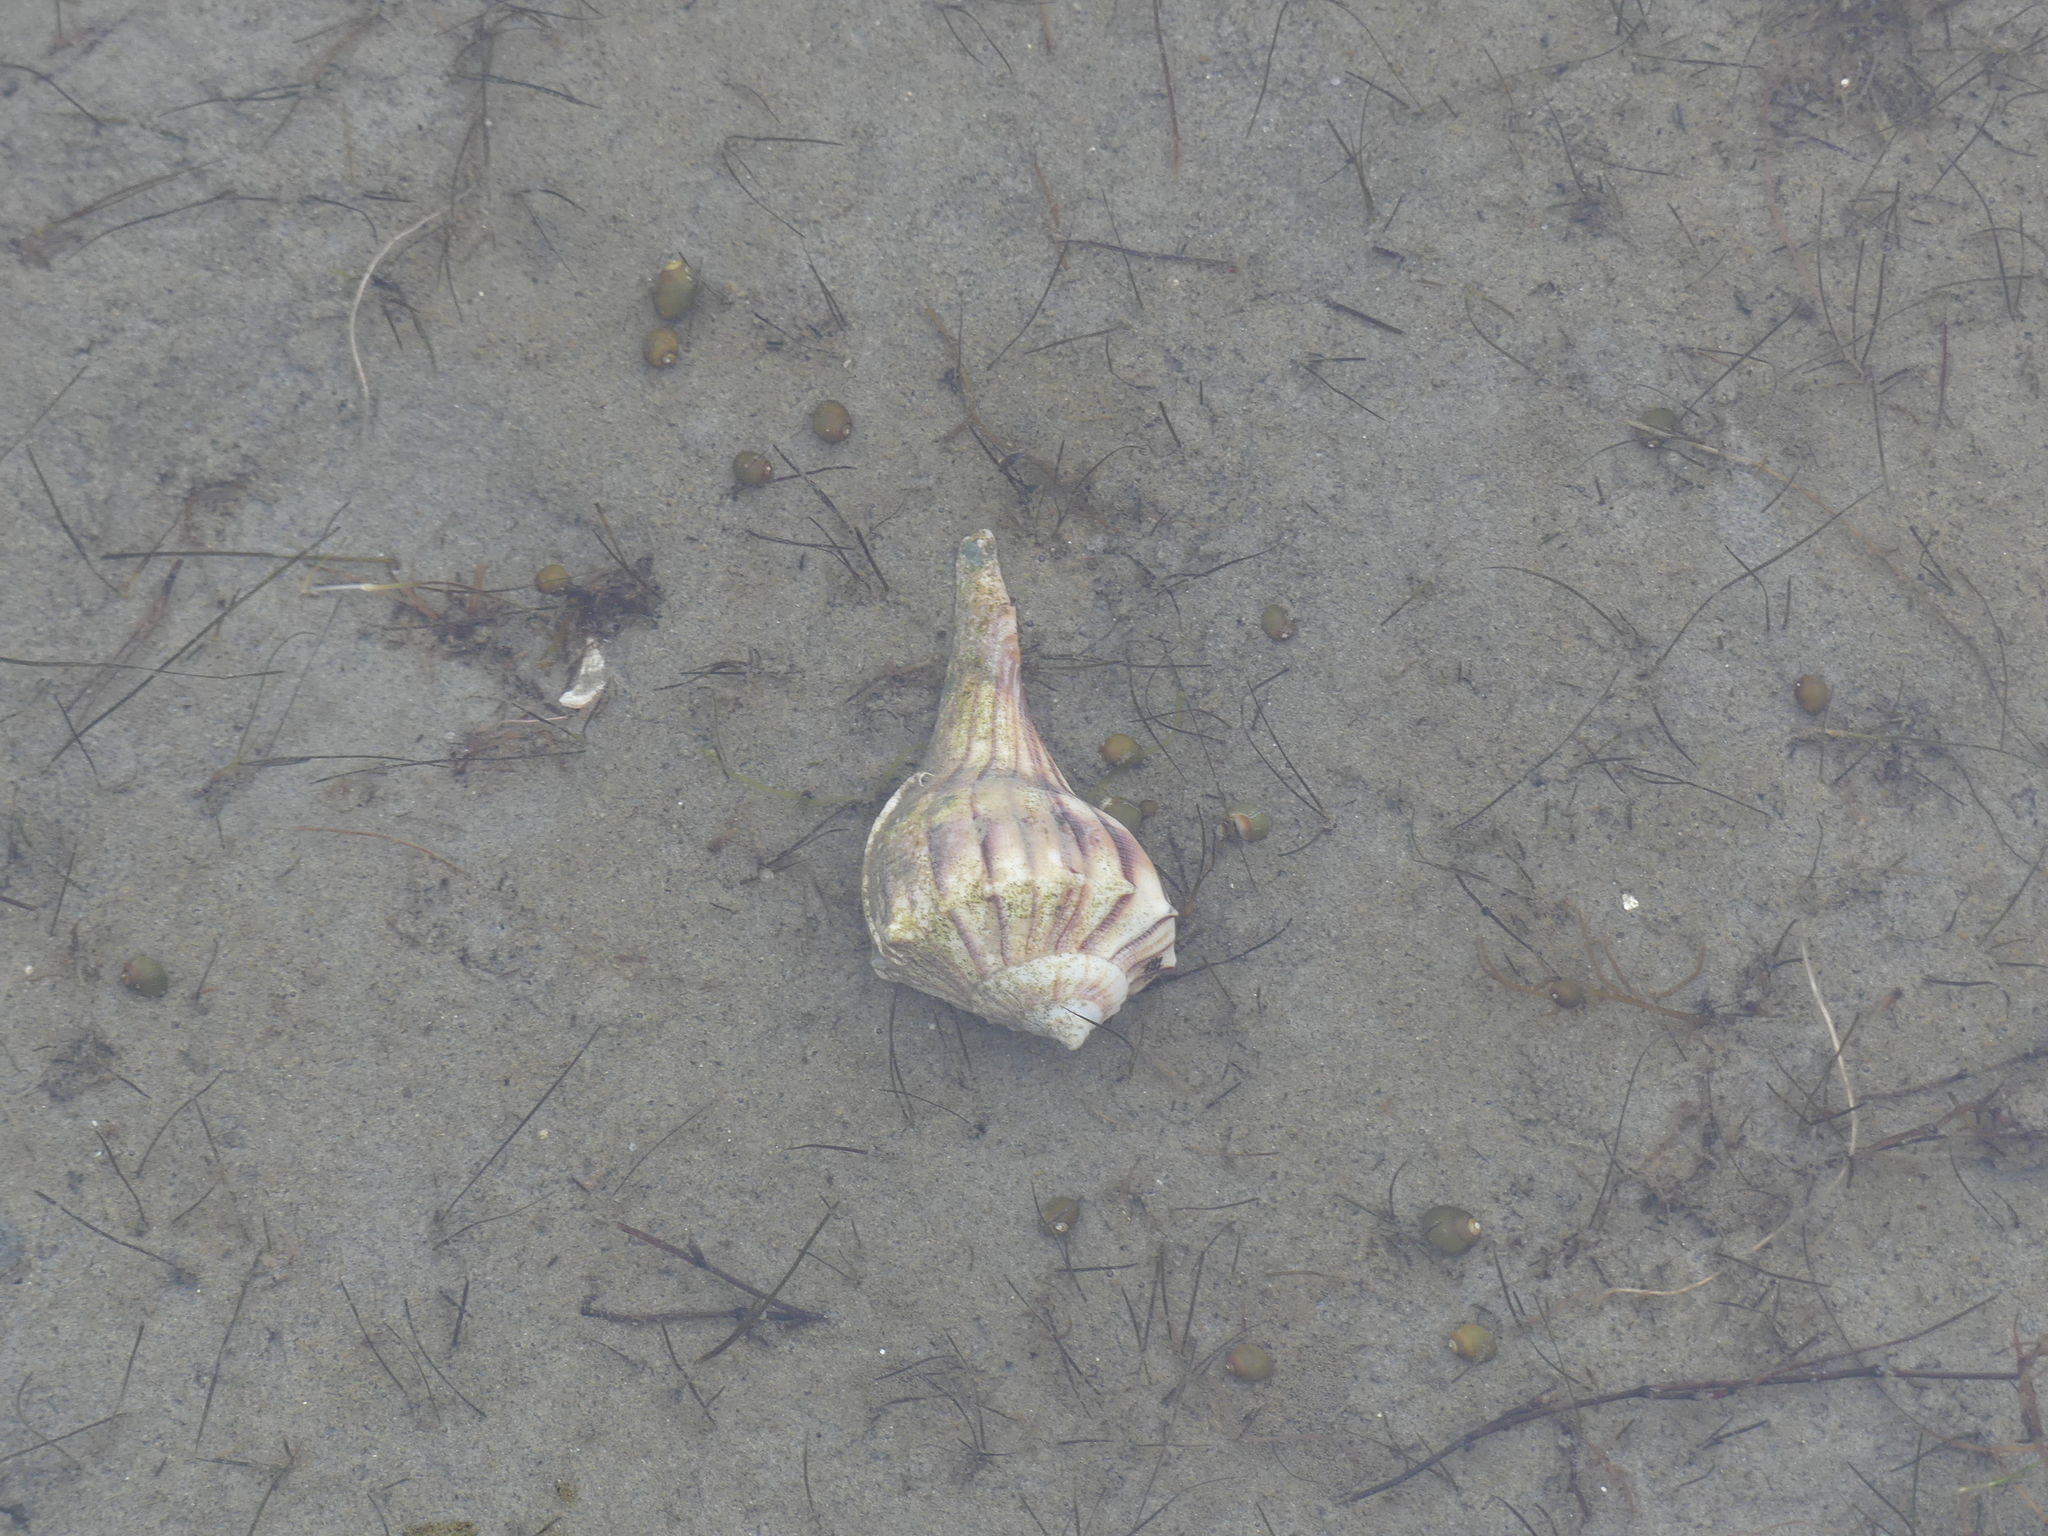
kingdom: Animalia
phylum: Mollusca
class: Gastropoda
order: Neogastropoda
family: Busyconidae
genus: Sinistrofulgur
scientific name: Sinistrofulgur sinistrum
